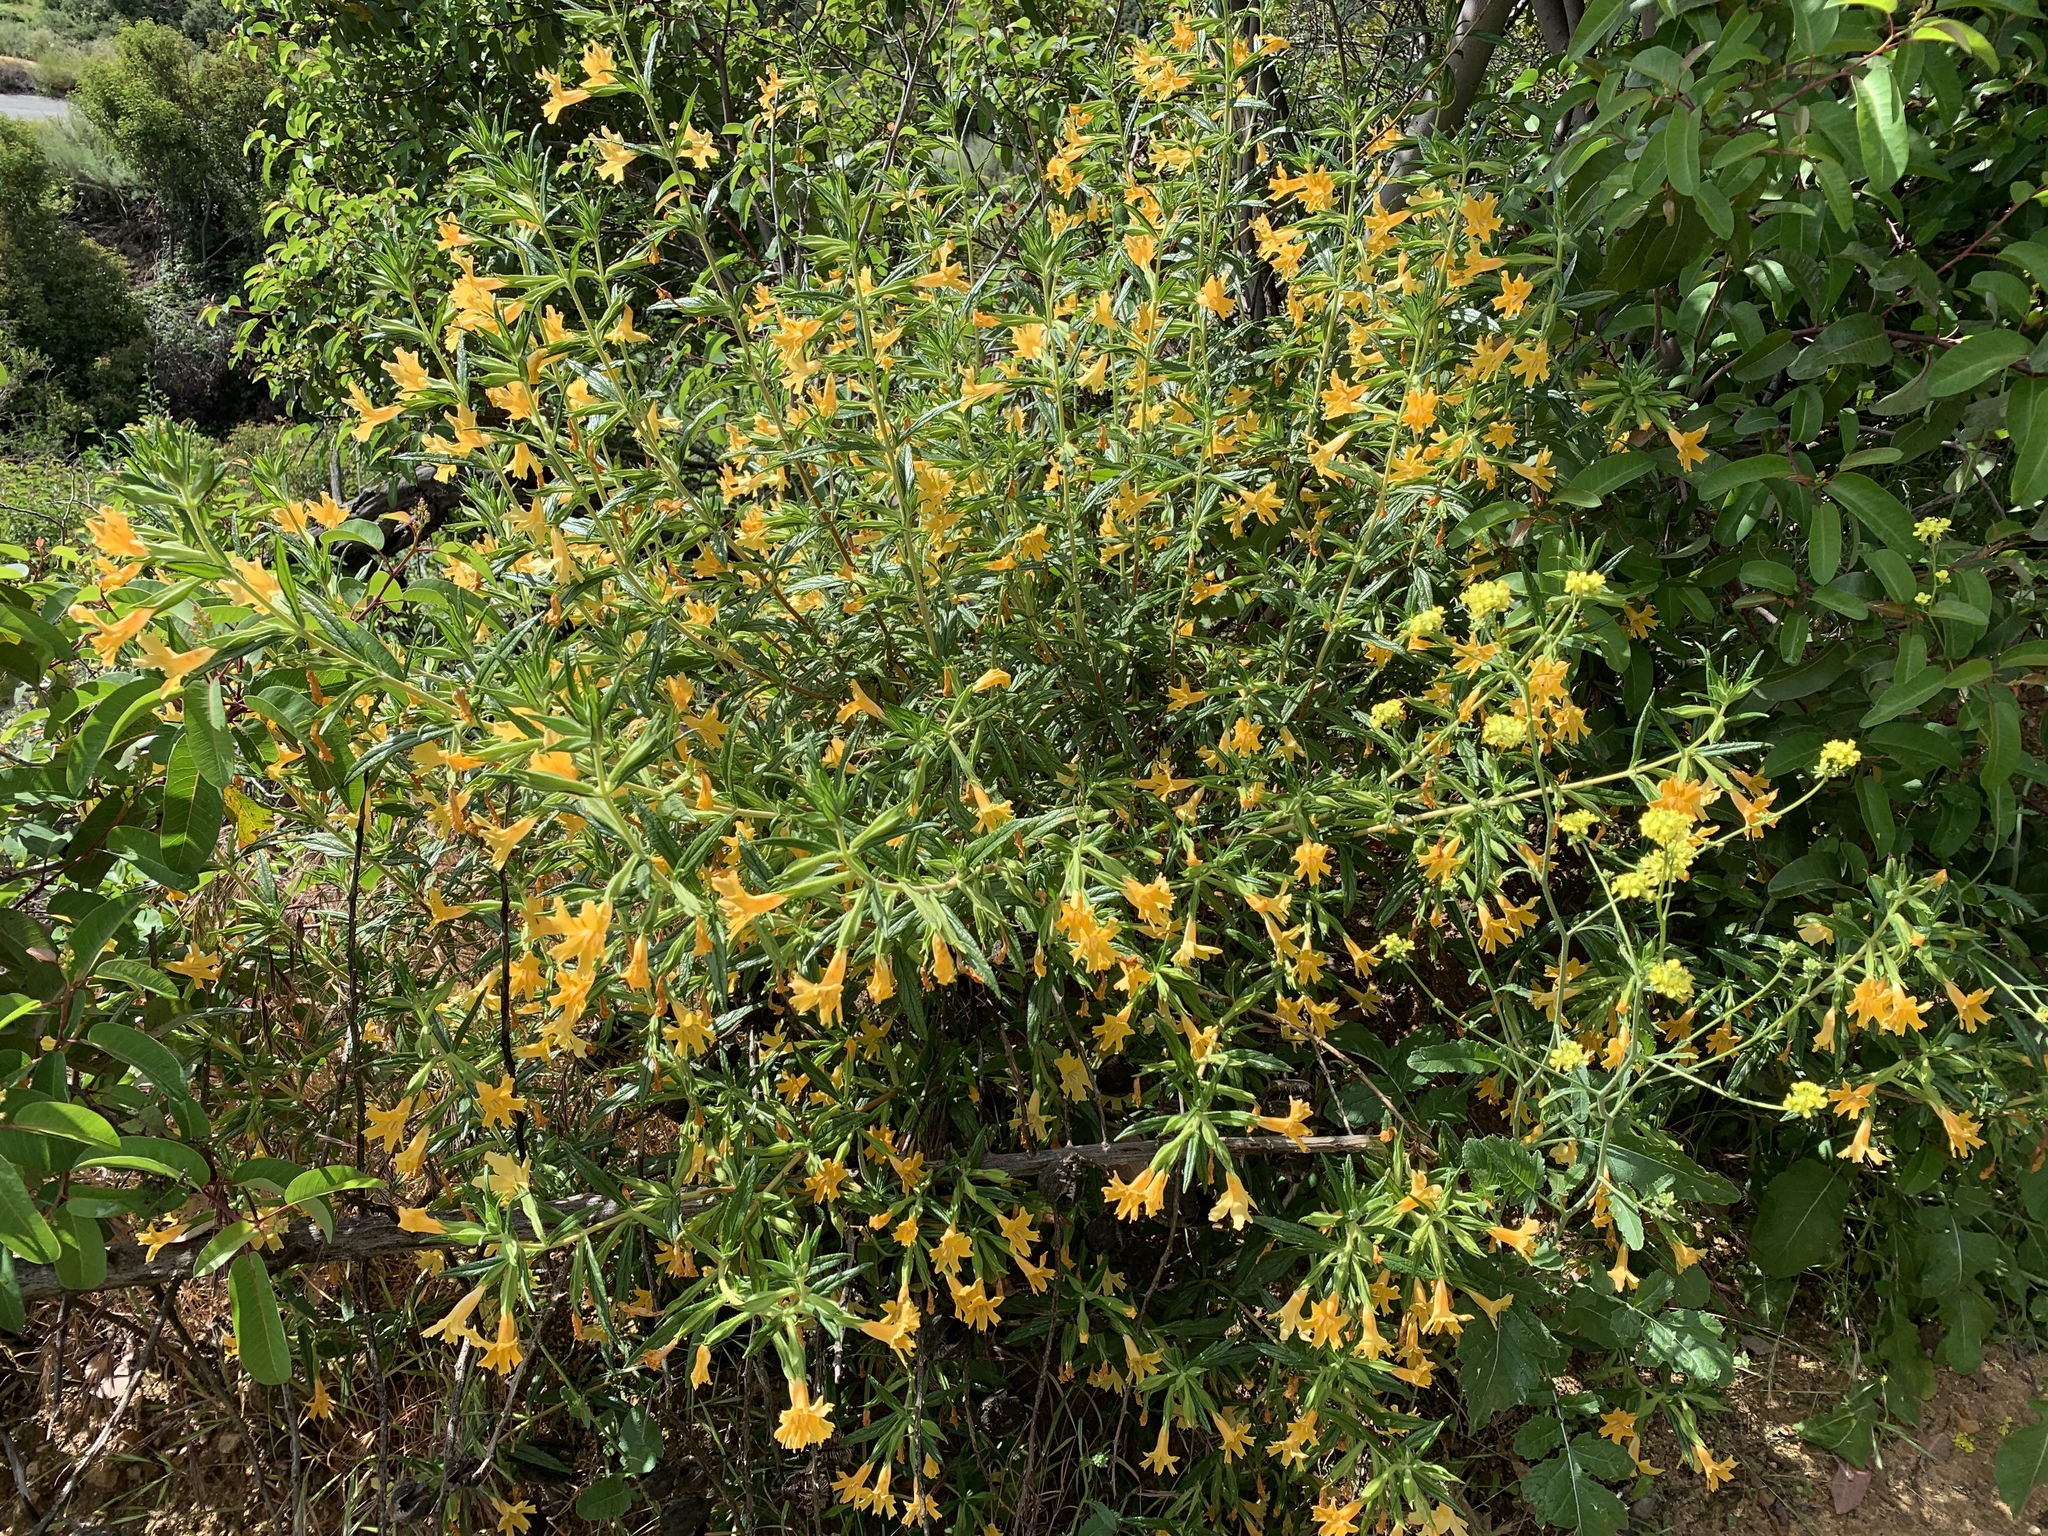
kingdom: Plantae
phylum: Tracheophyta
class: Magnoliopsida
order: Lamiales
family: Phrymaceae
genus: Diplacus
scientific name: Diplacus longiflorus
